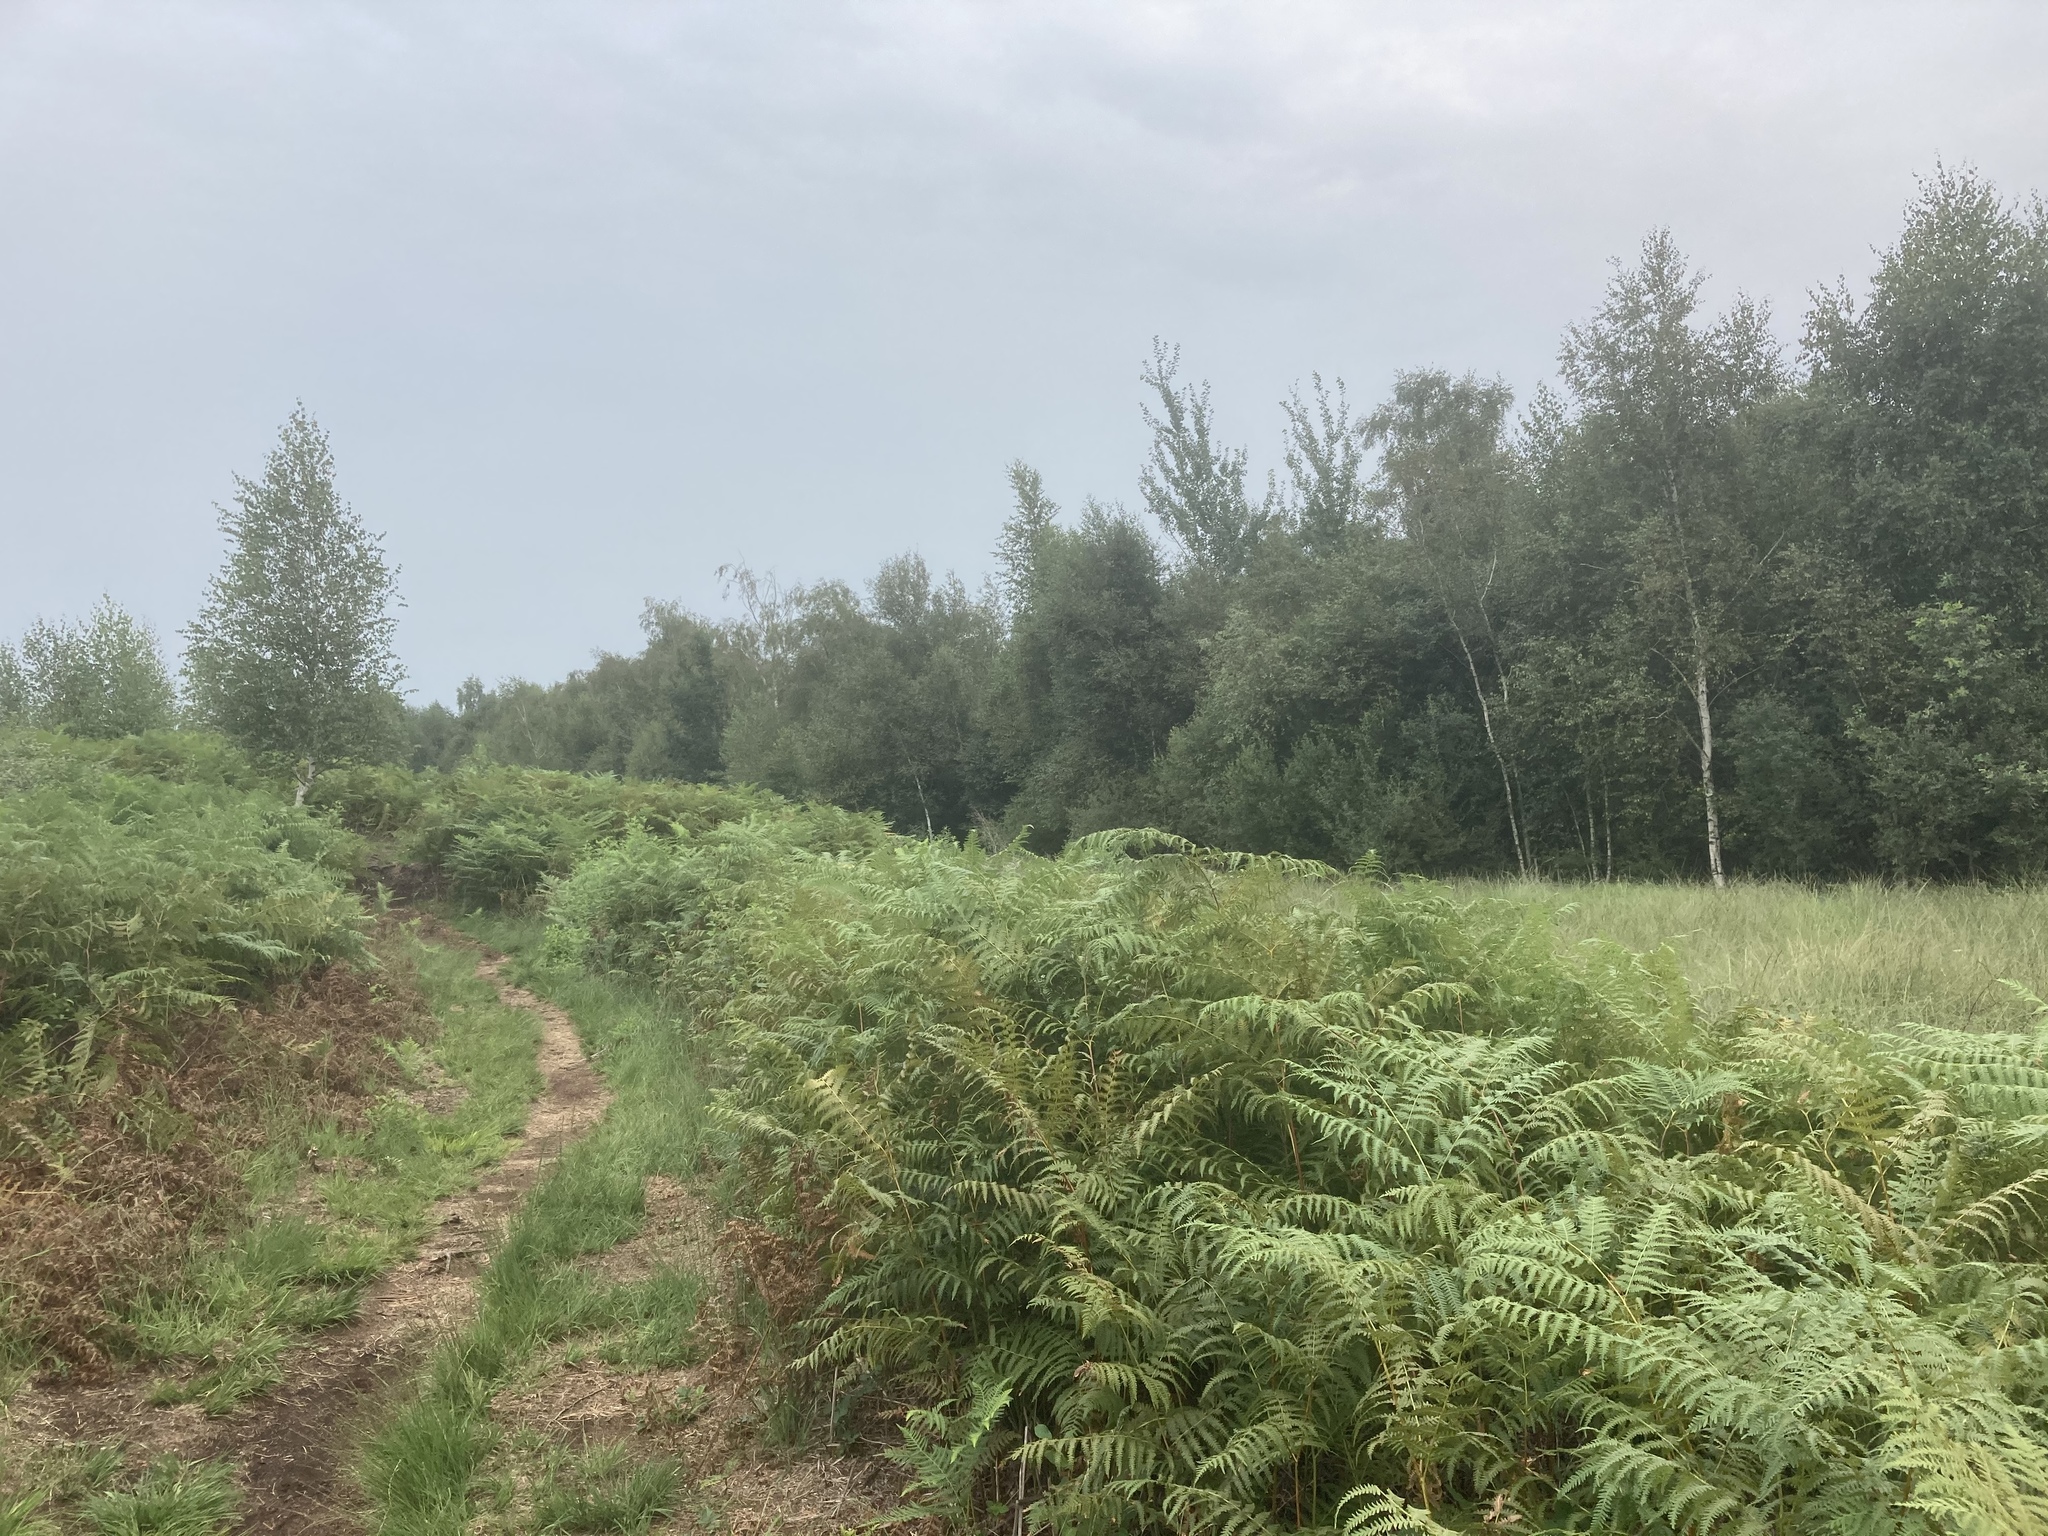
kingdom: Plantae
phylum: Tracheophyta
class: Polypodiopsida
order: Polypodiales
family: Dennstaedtiaceae
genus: Pteridium
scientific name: Pteridium aquilinum
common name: Bracken
